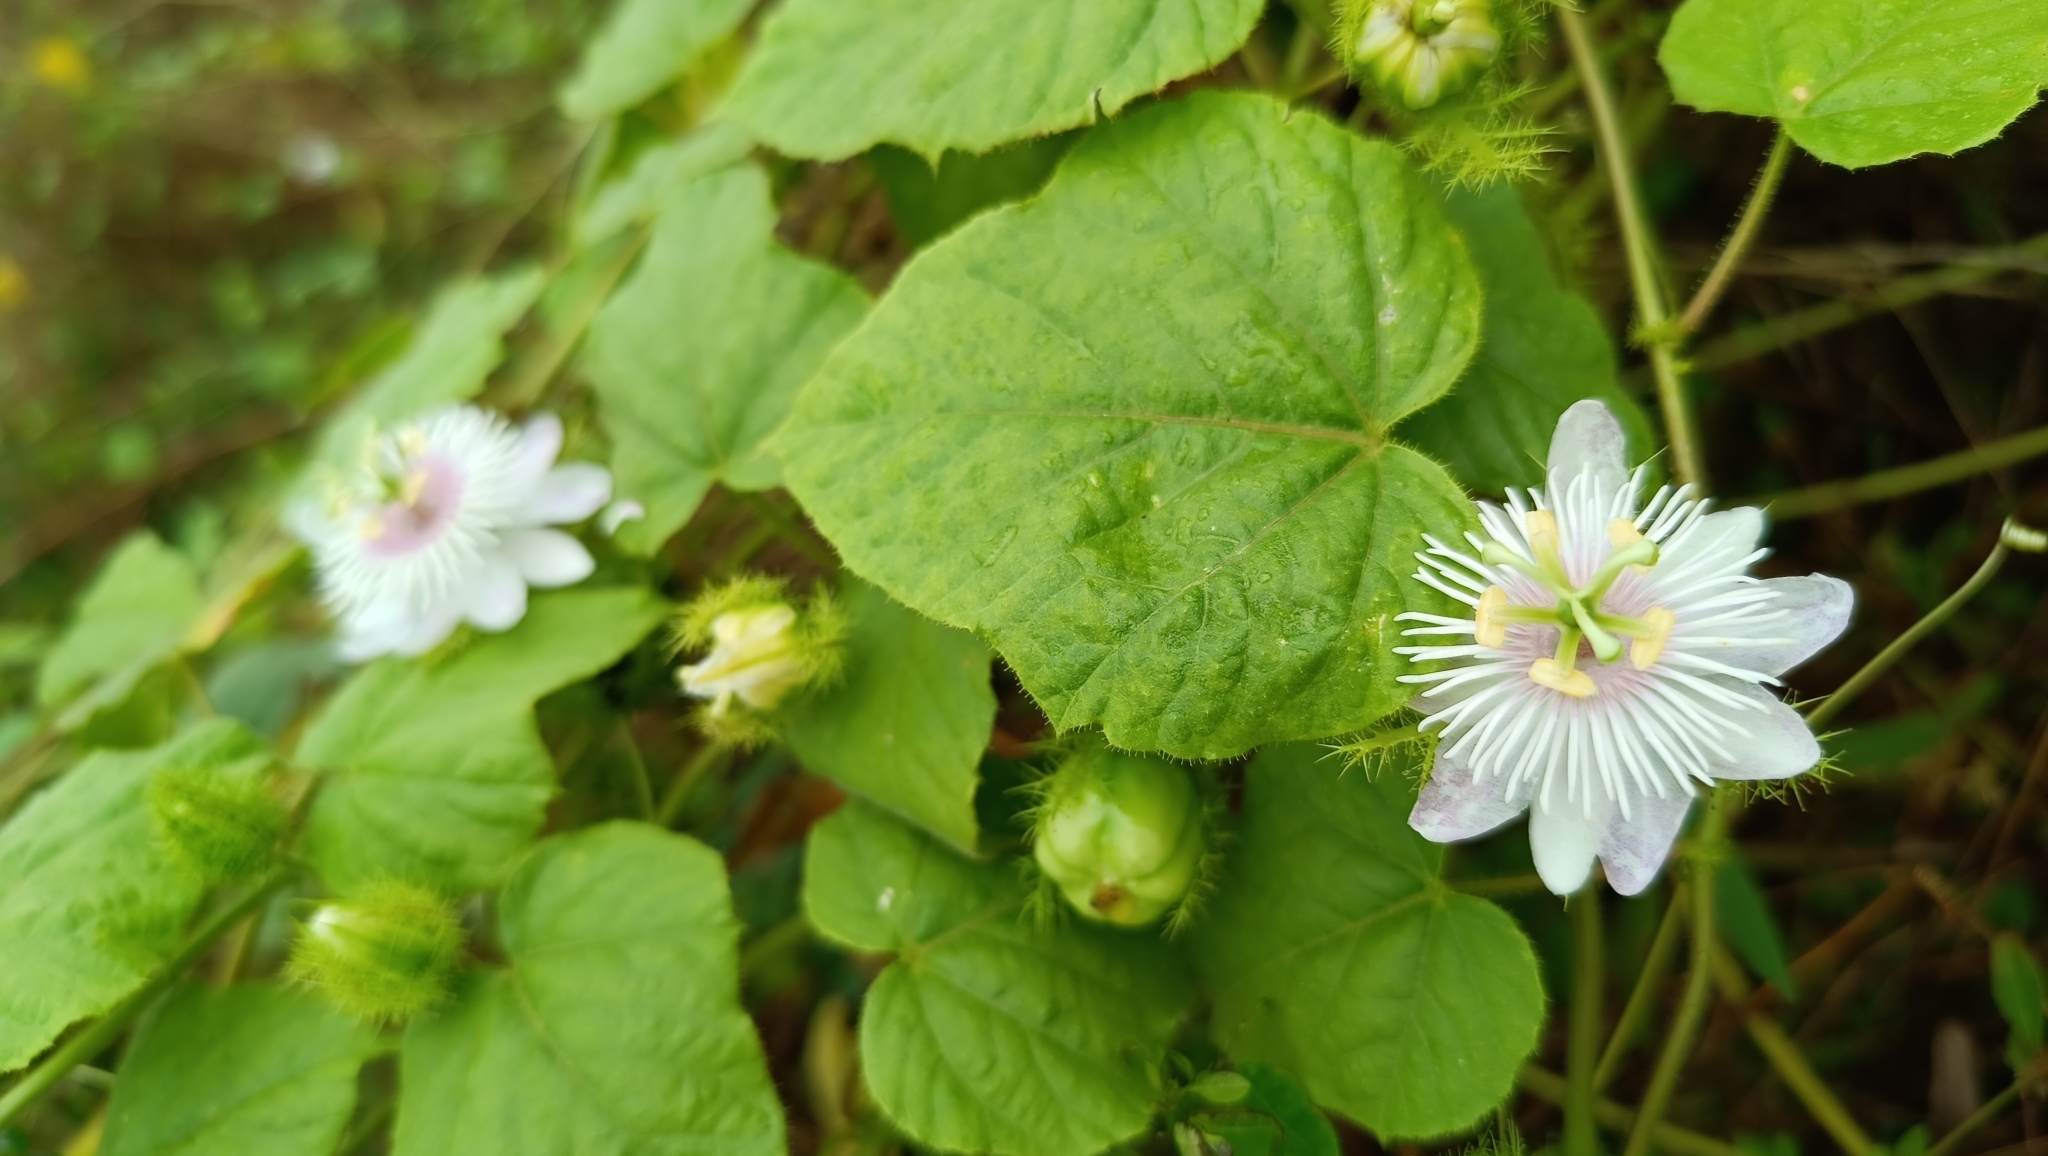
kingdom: Plantae
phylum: Tracheophyta
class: Magnoliopsida
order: Malpighiales
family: Passifloraceae
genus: Passiflora
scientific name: Passiflora vesicaria
